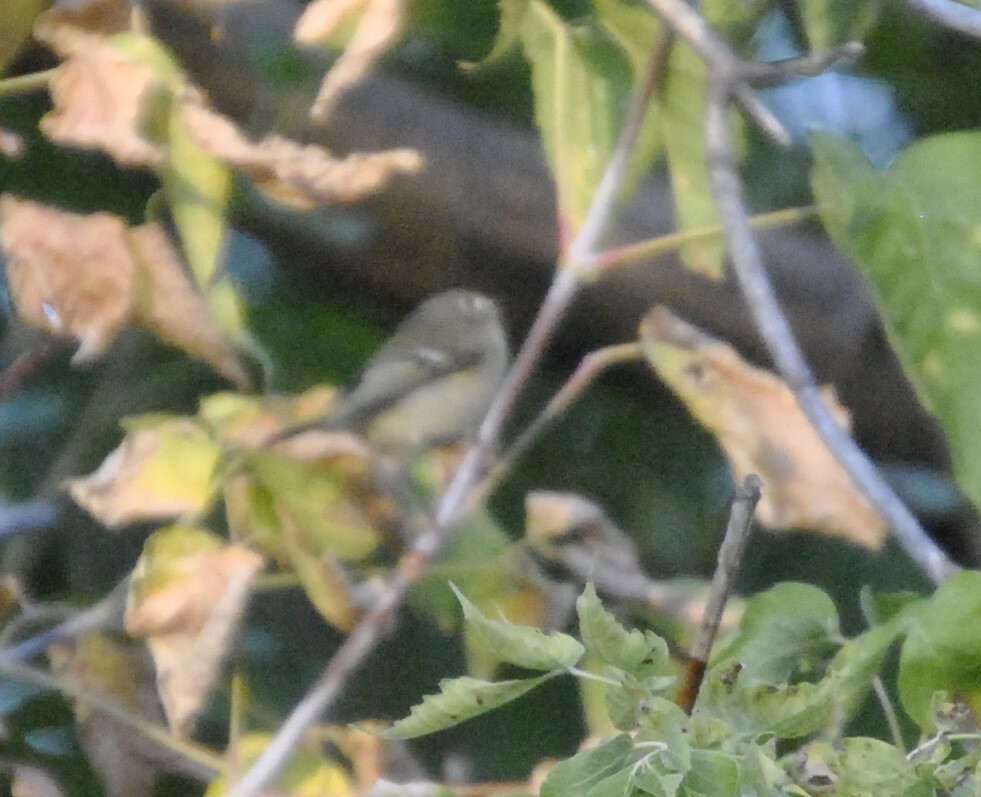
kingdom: Animalia
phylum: Chordata
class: Aves
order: Passeriformes
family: Regulidae
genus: Regulus
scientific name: Regulus calendula
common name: Ruby-crowned kinglet
